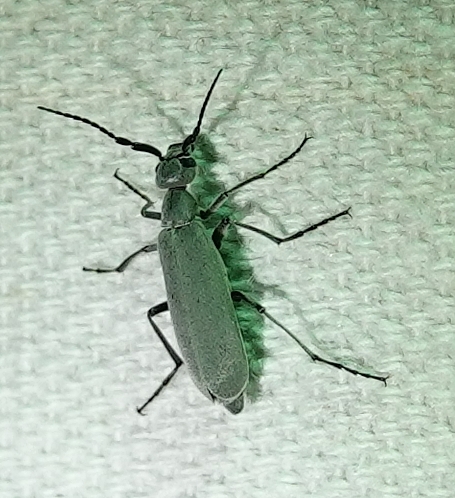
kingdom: Animalia
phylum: Arthropoda
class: Insecta
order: Coleoptera
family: Meloidae
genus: Epicauta
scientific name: Epicauta fabricii
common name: Ashgray blister beetle
